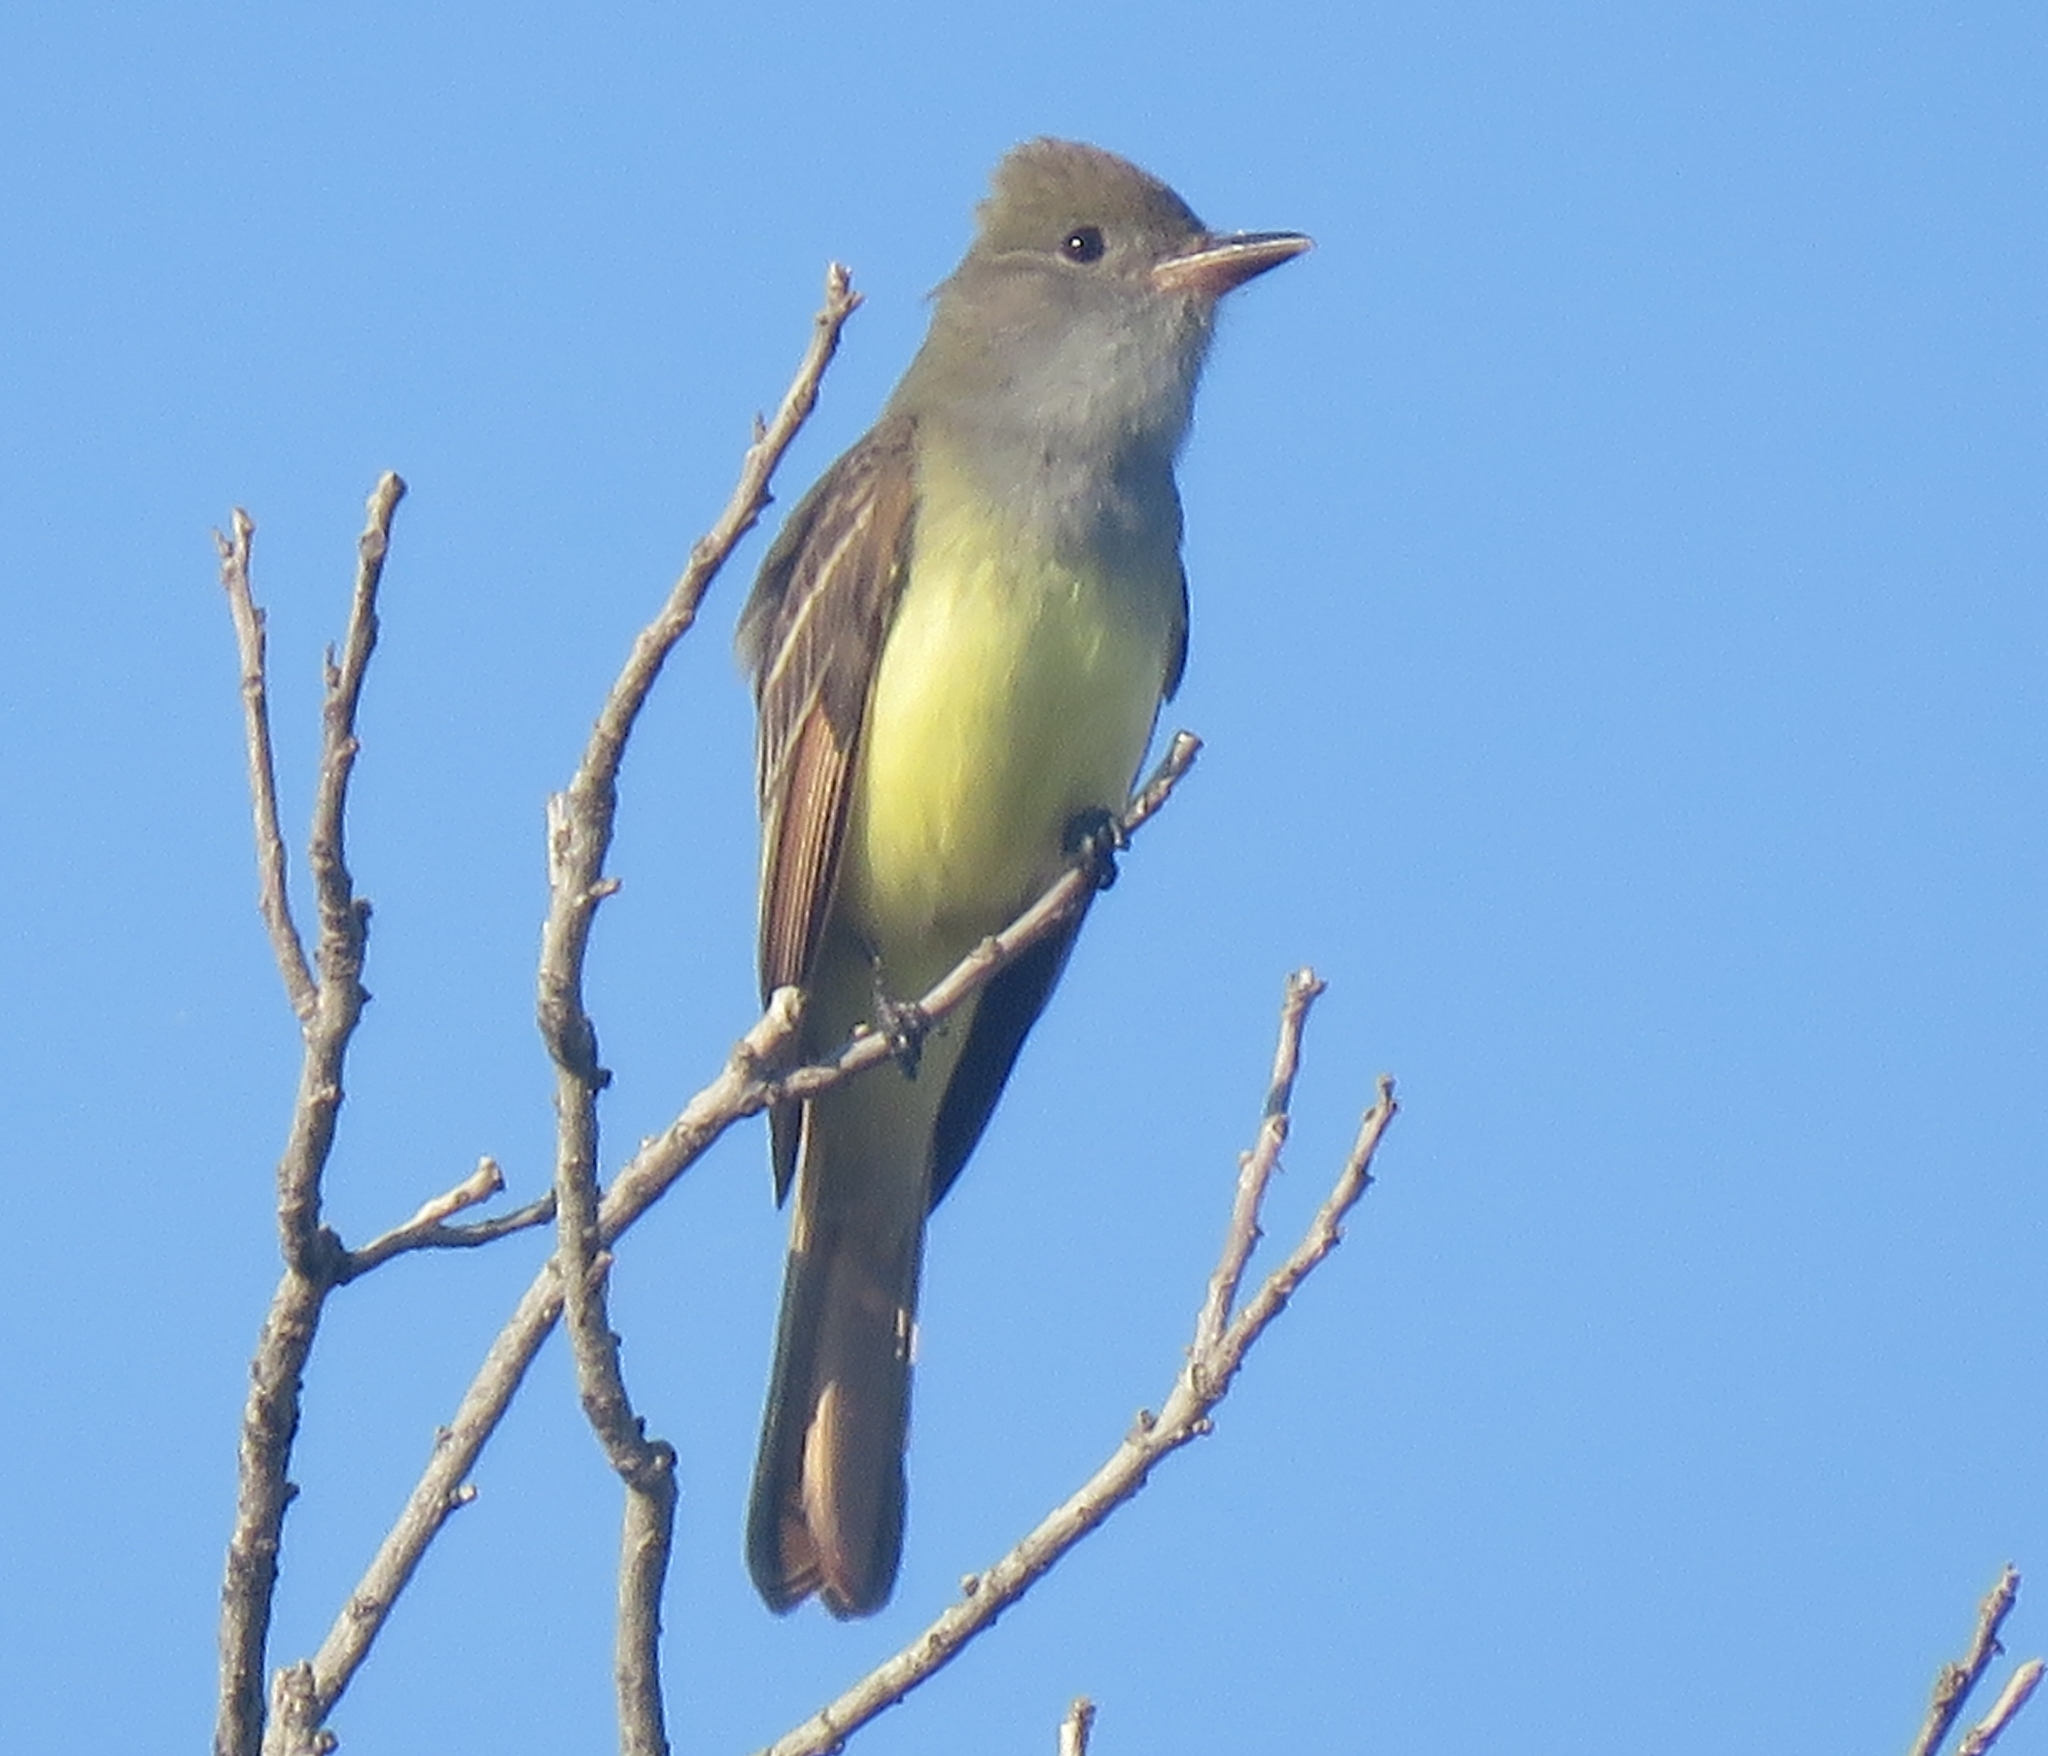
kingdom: Animalia
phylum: Chordata
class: Aves
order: Passeriformes
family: Tyrannidae
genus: Myiarchus
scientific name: Myiarchus crinitus
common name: Great crested flycatcher
